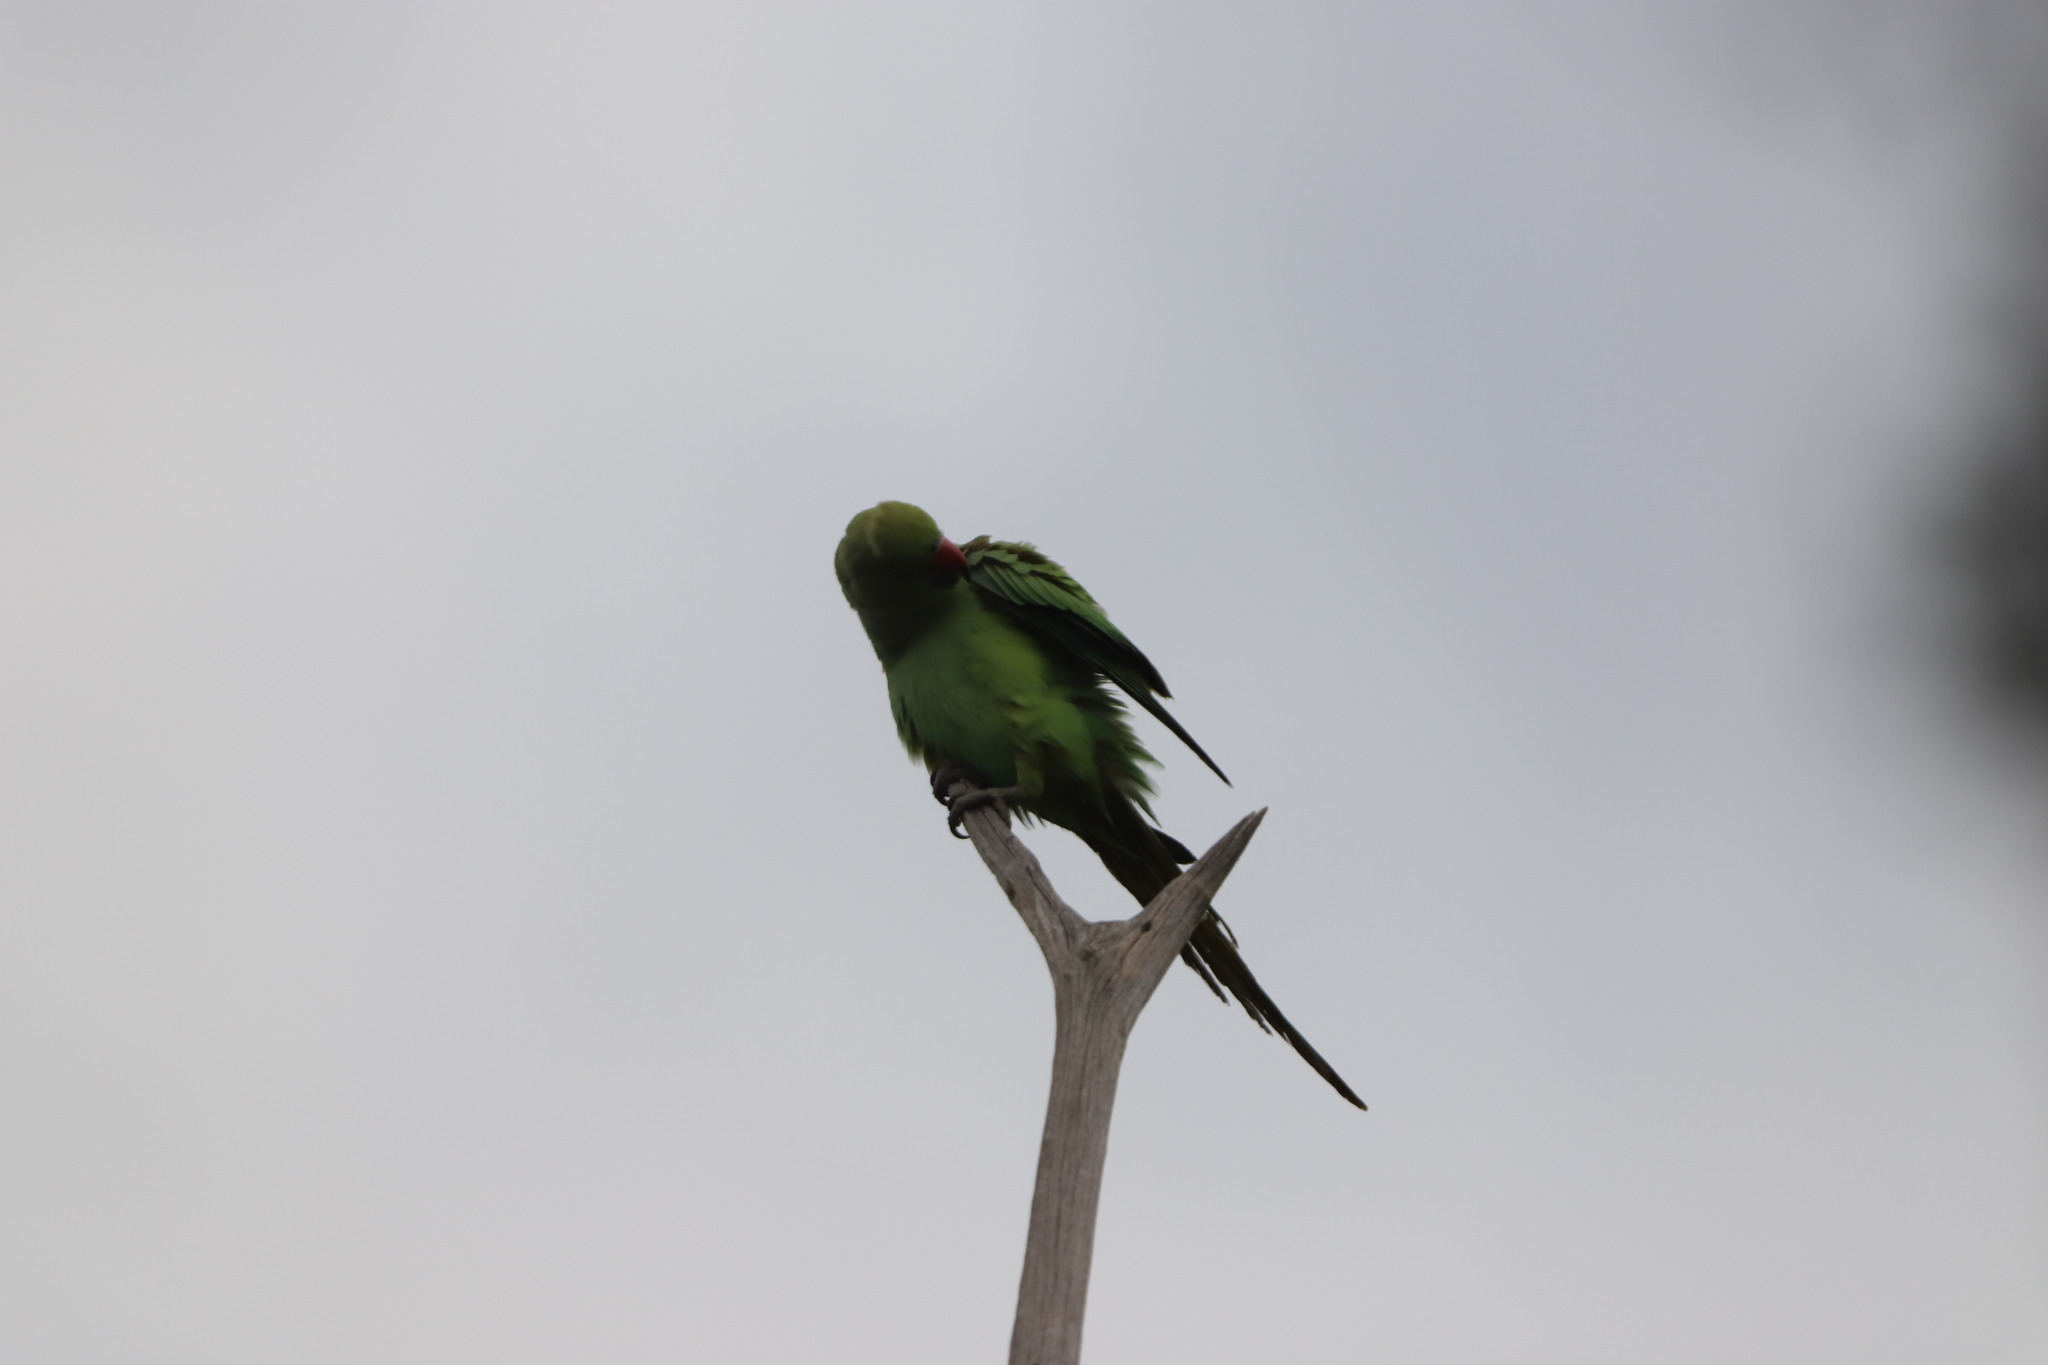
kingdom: Animalia
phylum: Chordata
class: Aves
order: Psittaciformes
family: Psittacidae
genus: Psittacula
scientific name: Psittacula krameri
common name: Rose-ringed parakeet
